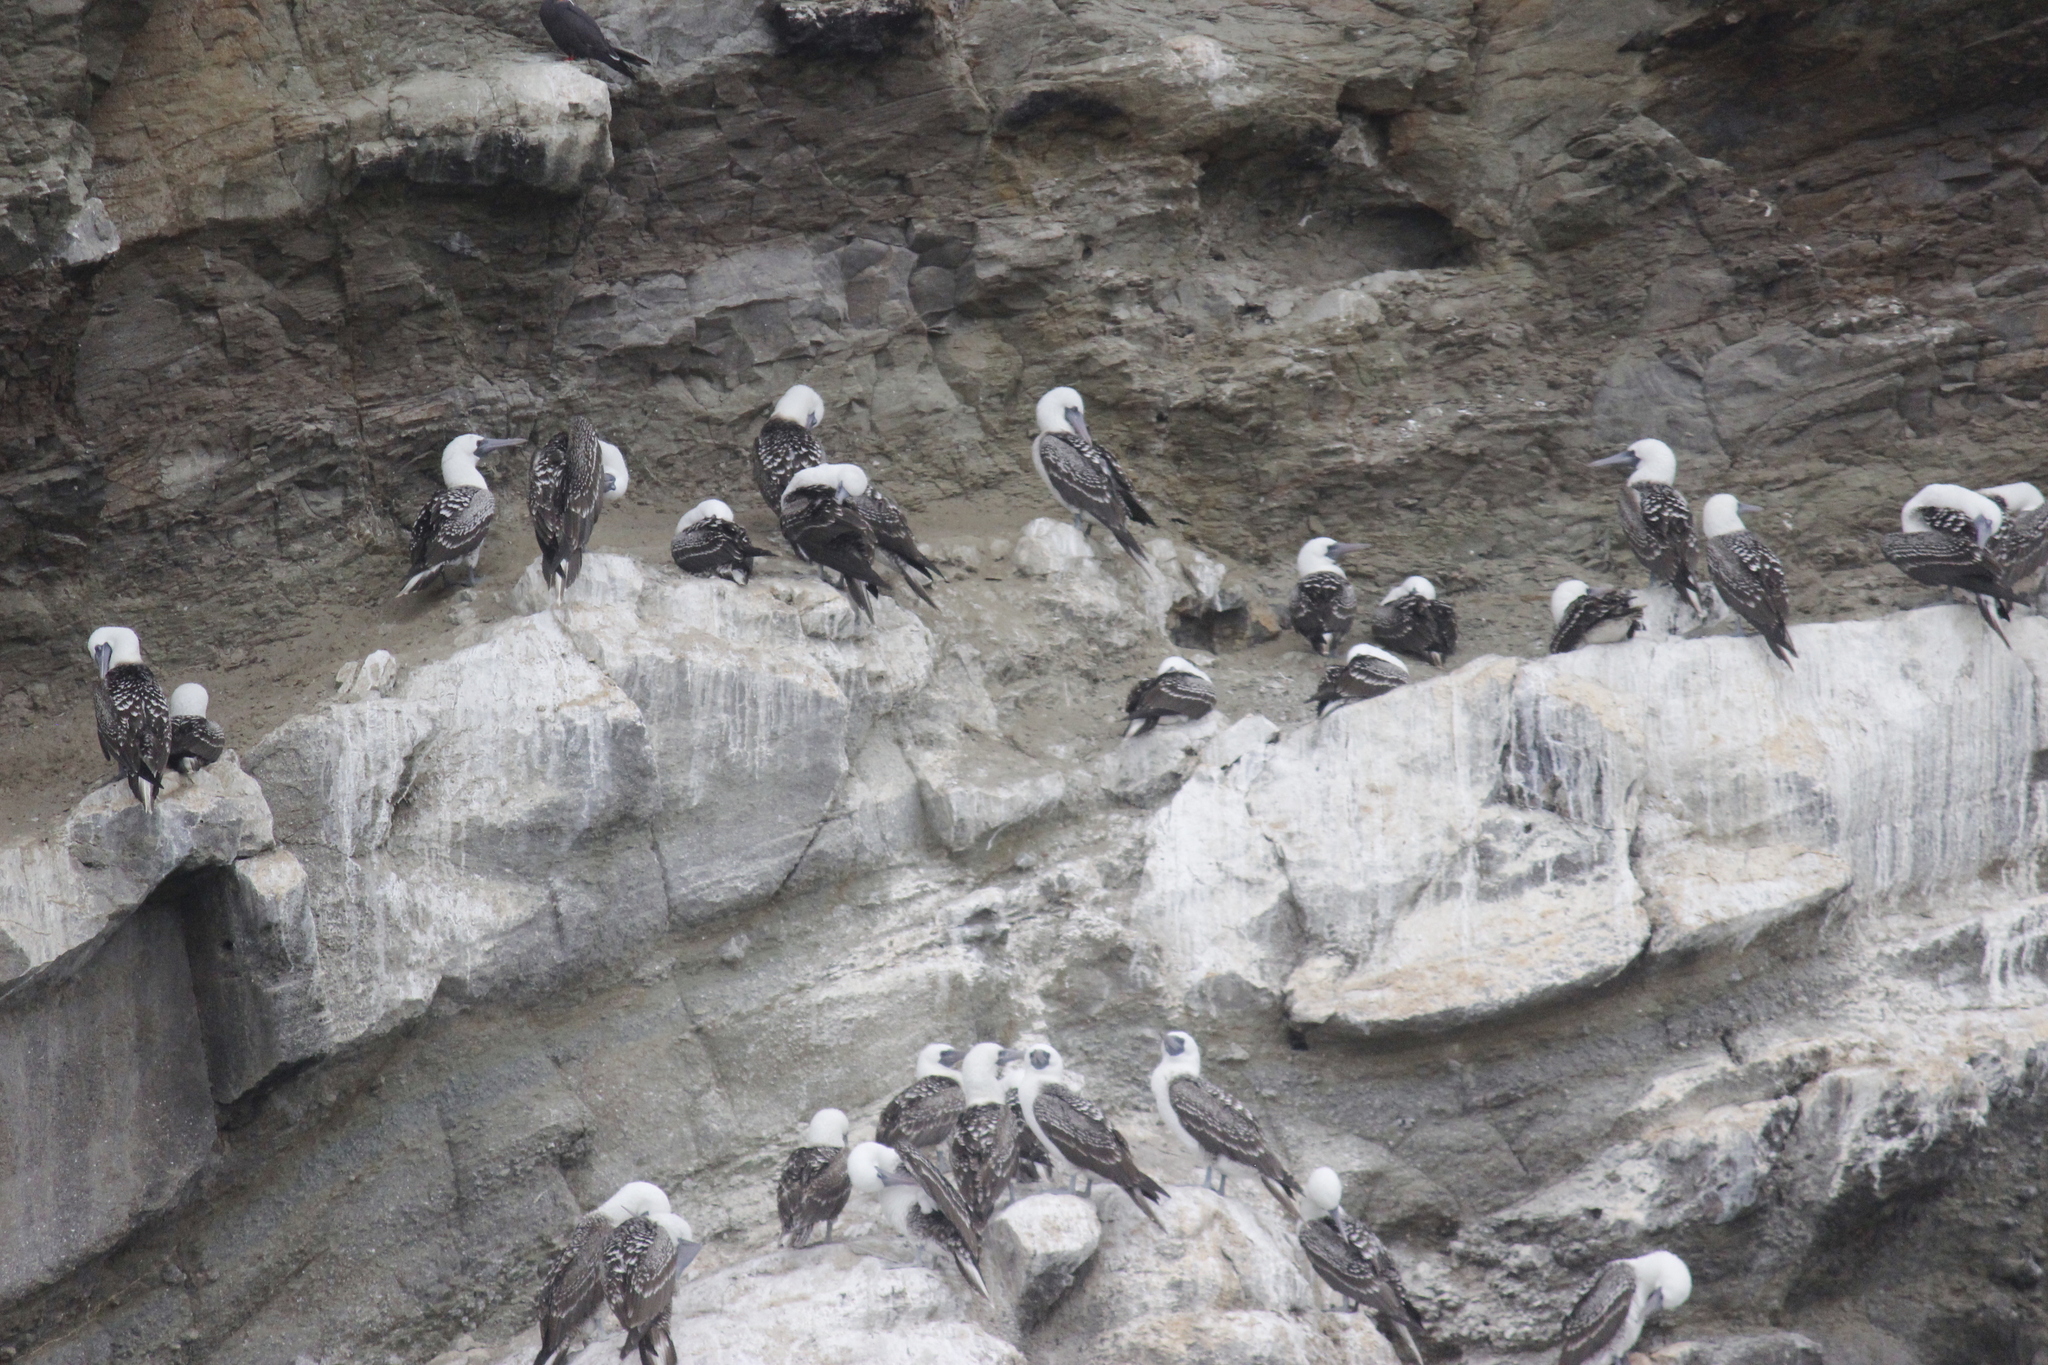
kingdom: Animalia
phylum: Chordata
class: Aves
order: Suliformes
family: Sulidae
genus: Sula
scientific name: Sula variegata
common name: Peruvian booby
